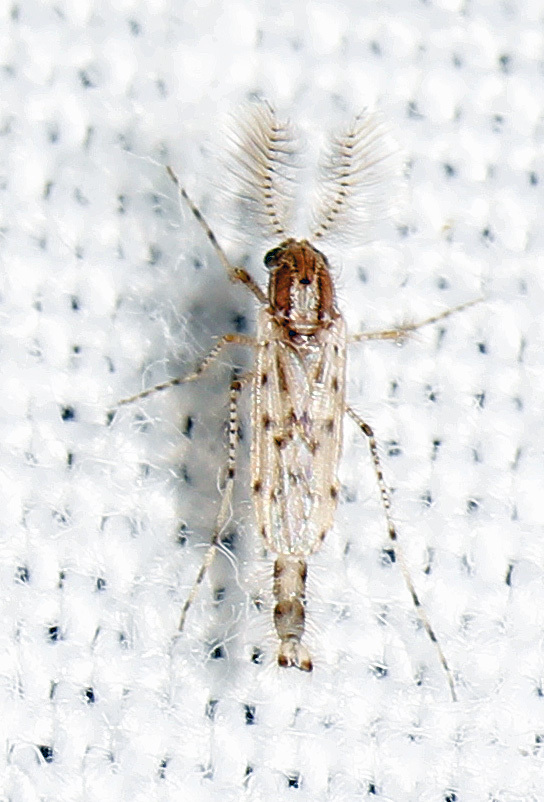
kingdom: Animalia
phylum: Arthropoda
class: Insecta
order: Diptera
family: Chaoboridae
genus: Chaoborus
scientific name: Chaoborus punctipennis
